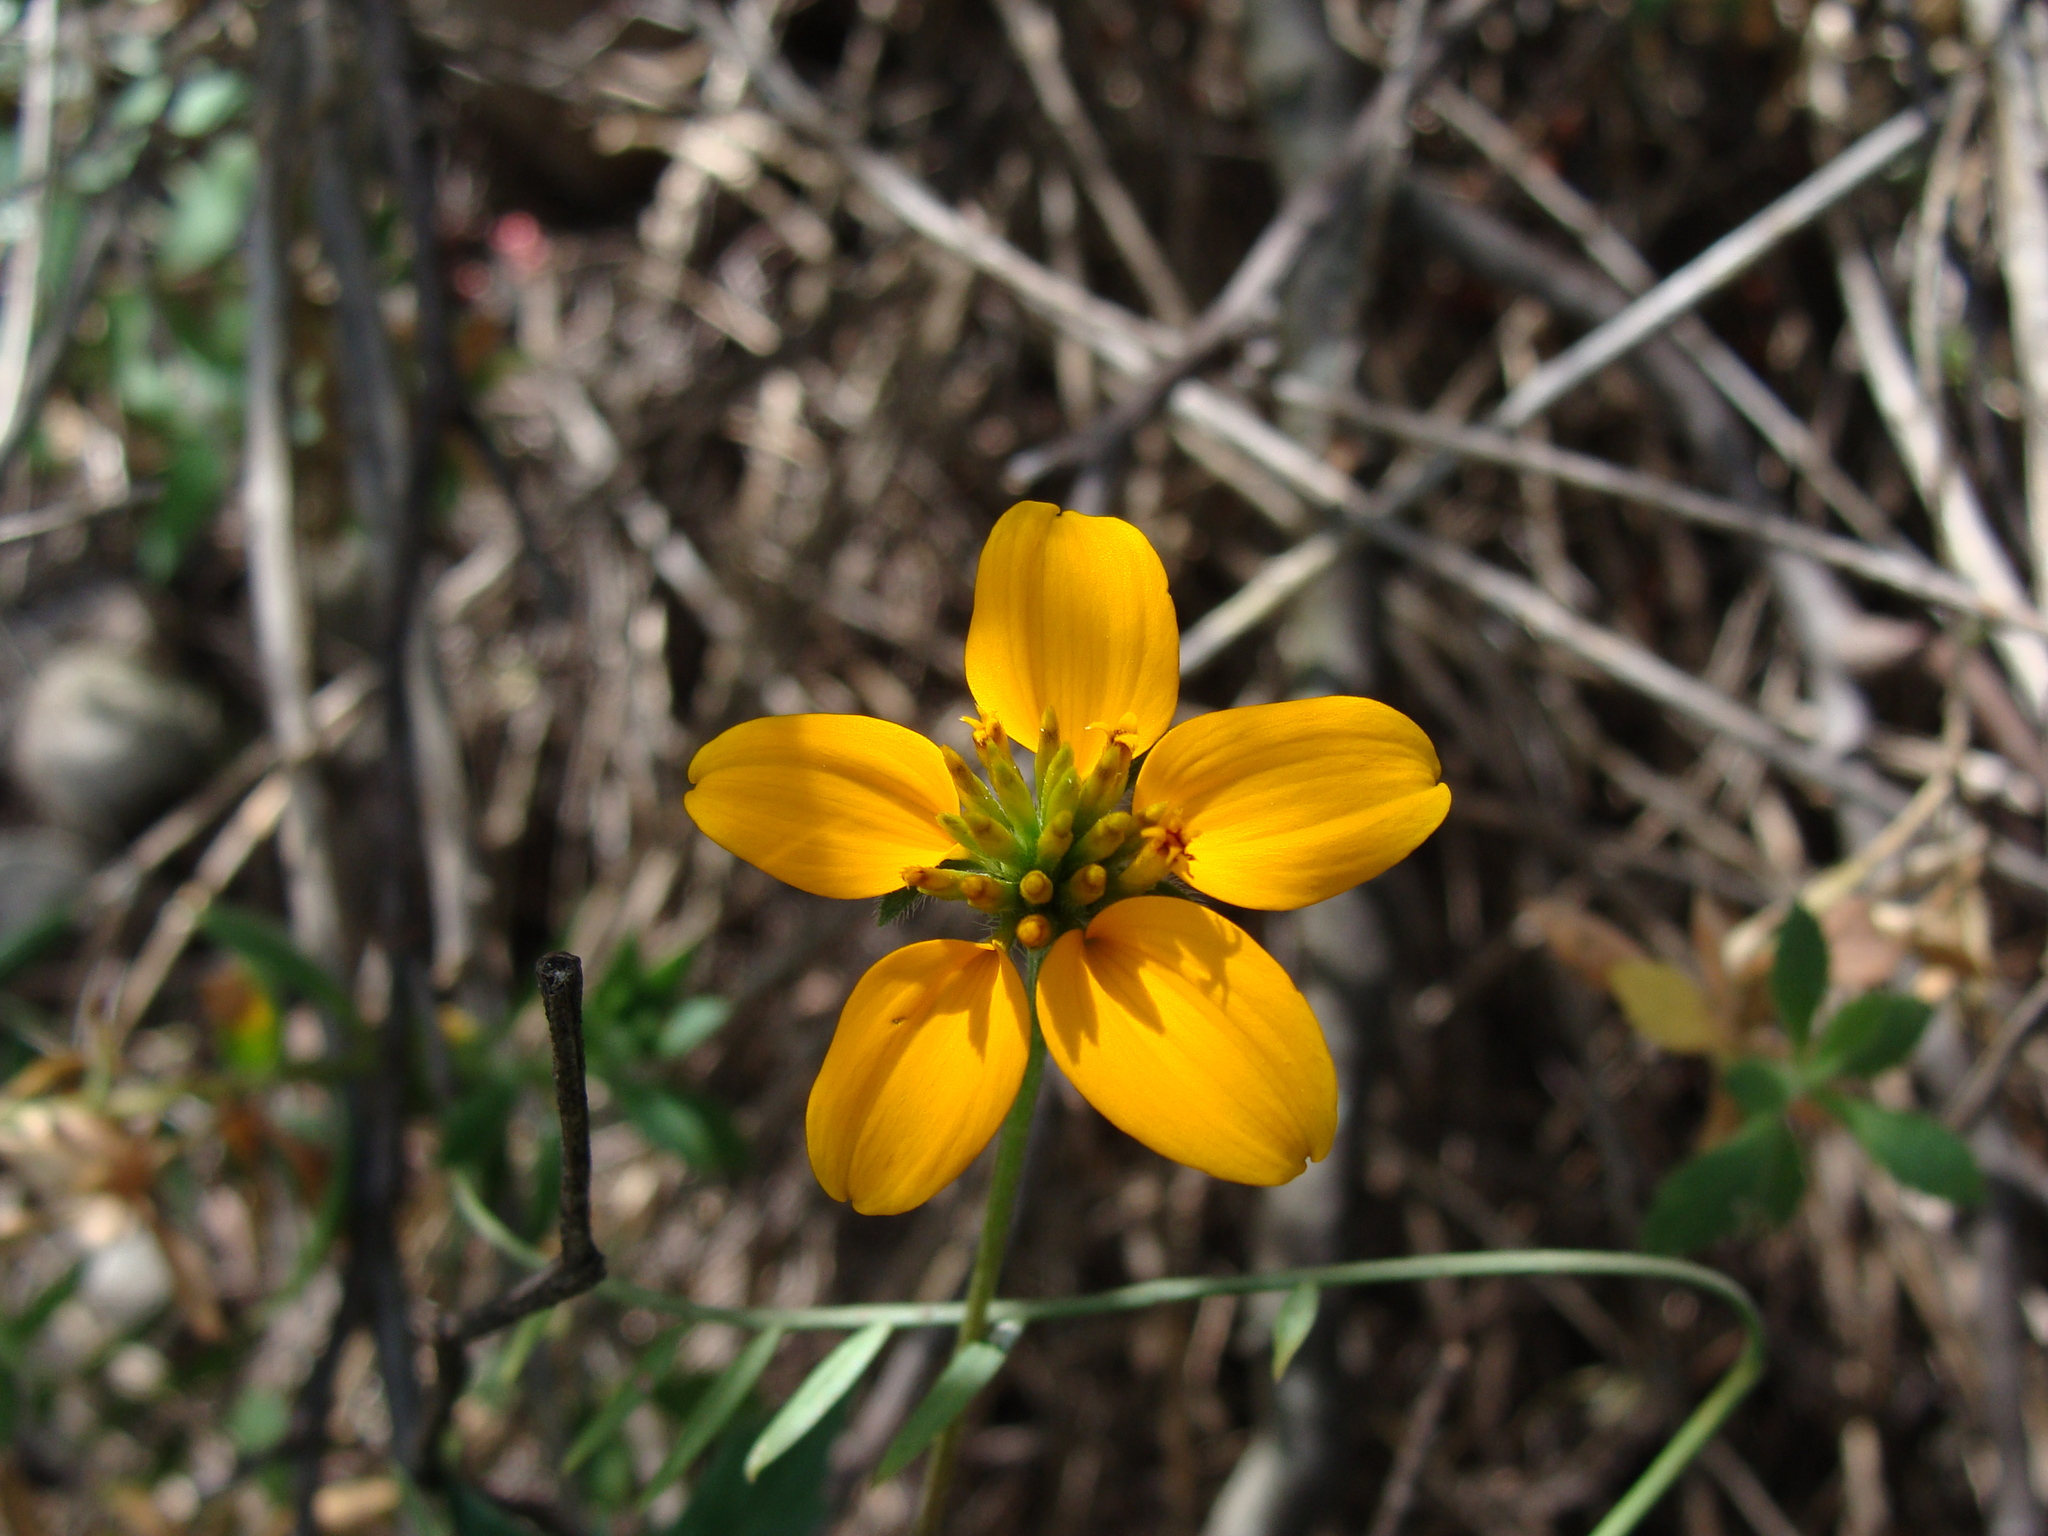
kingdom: Plantae
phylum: Tracheophyta
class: Magnoliopsida
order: Asterales
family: Asteraceae
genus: Sclerocarpus
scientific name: Sclerocarpus uniserialis
